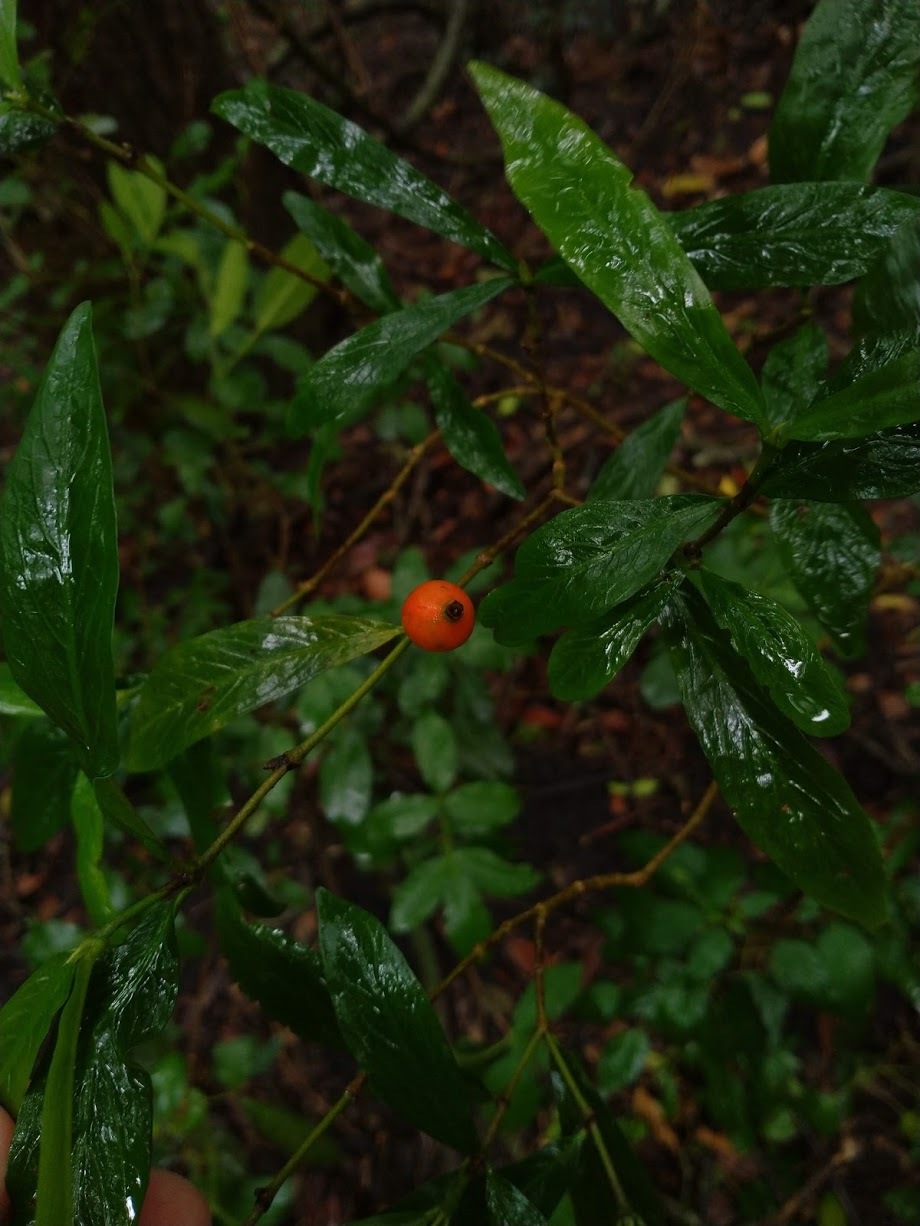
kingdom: Plantae
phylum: Tracheophyta
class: Magnoliopsida
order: Gentianales
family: Rubiaceae
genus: Atractocarpus
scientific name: Atractocarpus chartaceus
